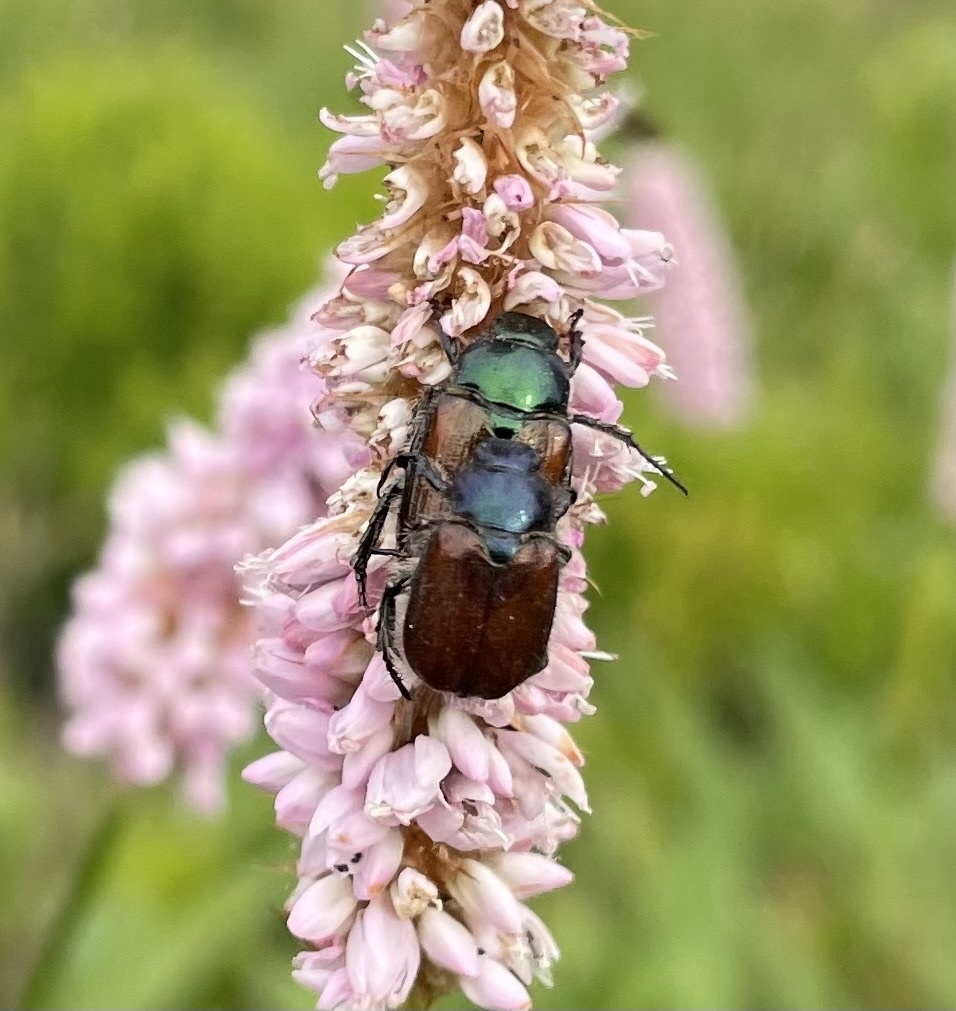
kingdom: Animalia
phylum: Arthropoda
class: Insecta
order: Coleoptera
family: Scarabaeidae
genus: Phyllopertha
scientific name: Phyllopertha horticola
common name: Garden chafer
